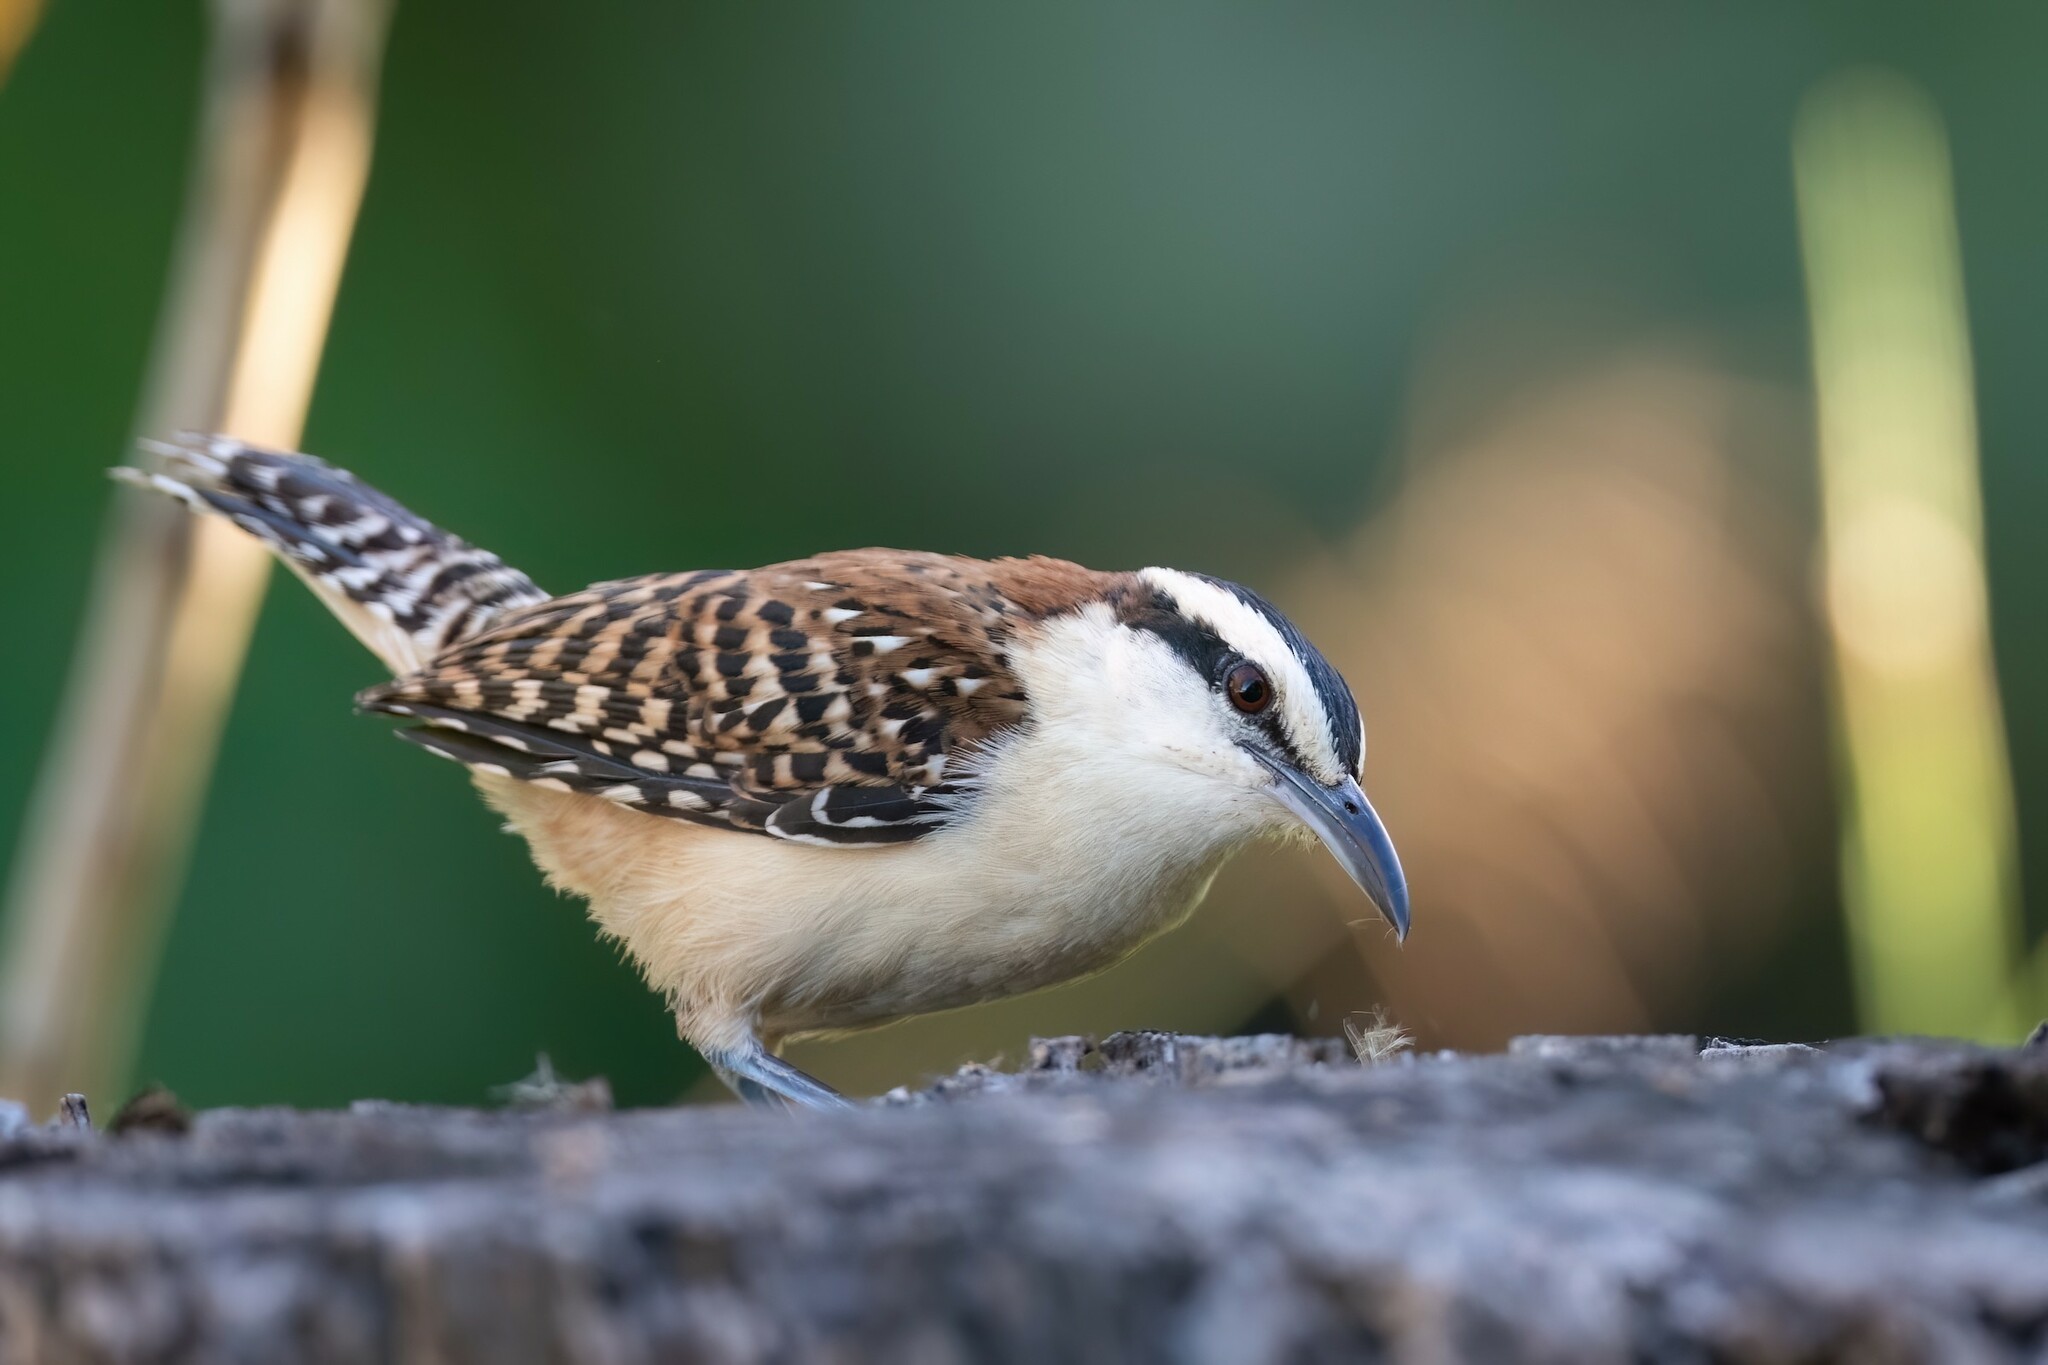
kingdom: Animalia
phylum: Chordata
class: Aves
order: Passeriformes
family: Troglodytidae
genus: Campylorhynchus
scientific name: Campylorhynchus rufinucha
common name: Rufous-naped wren
